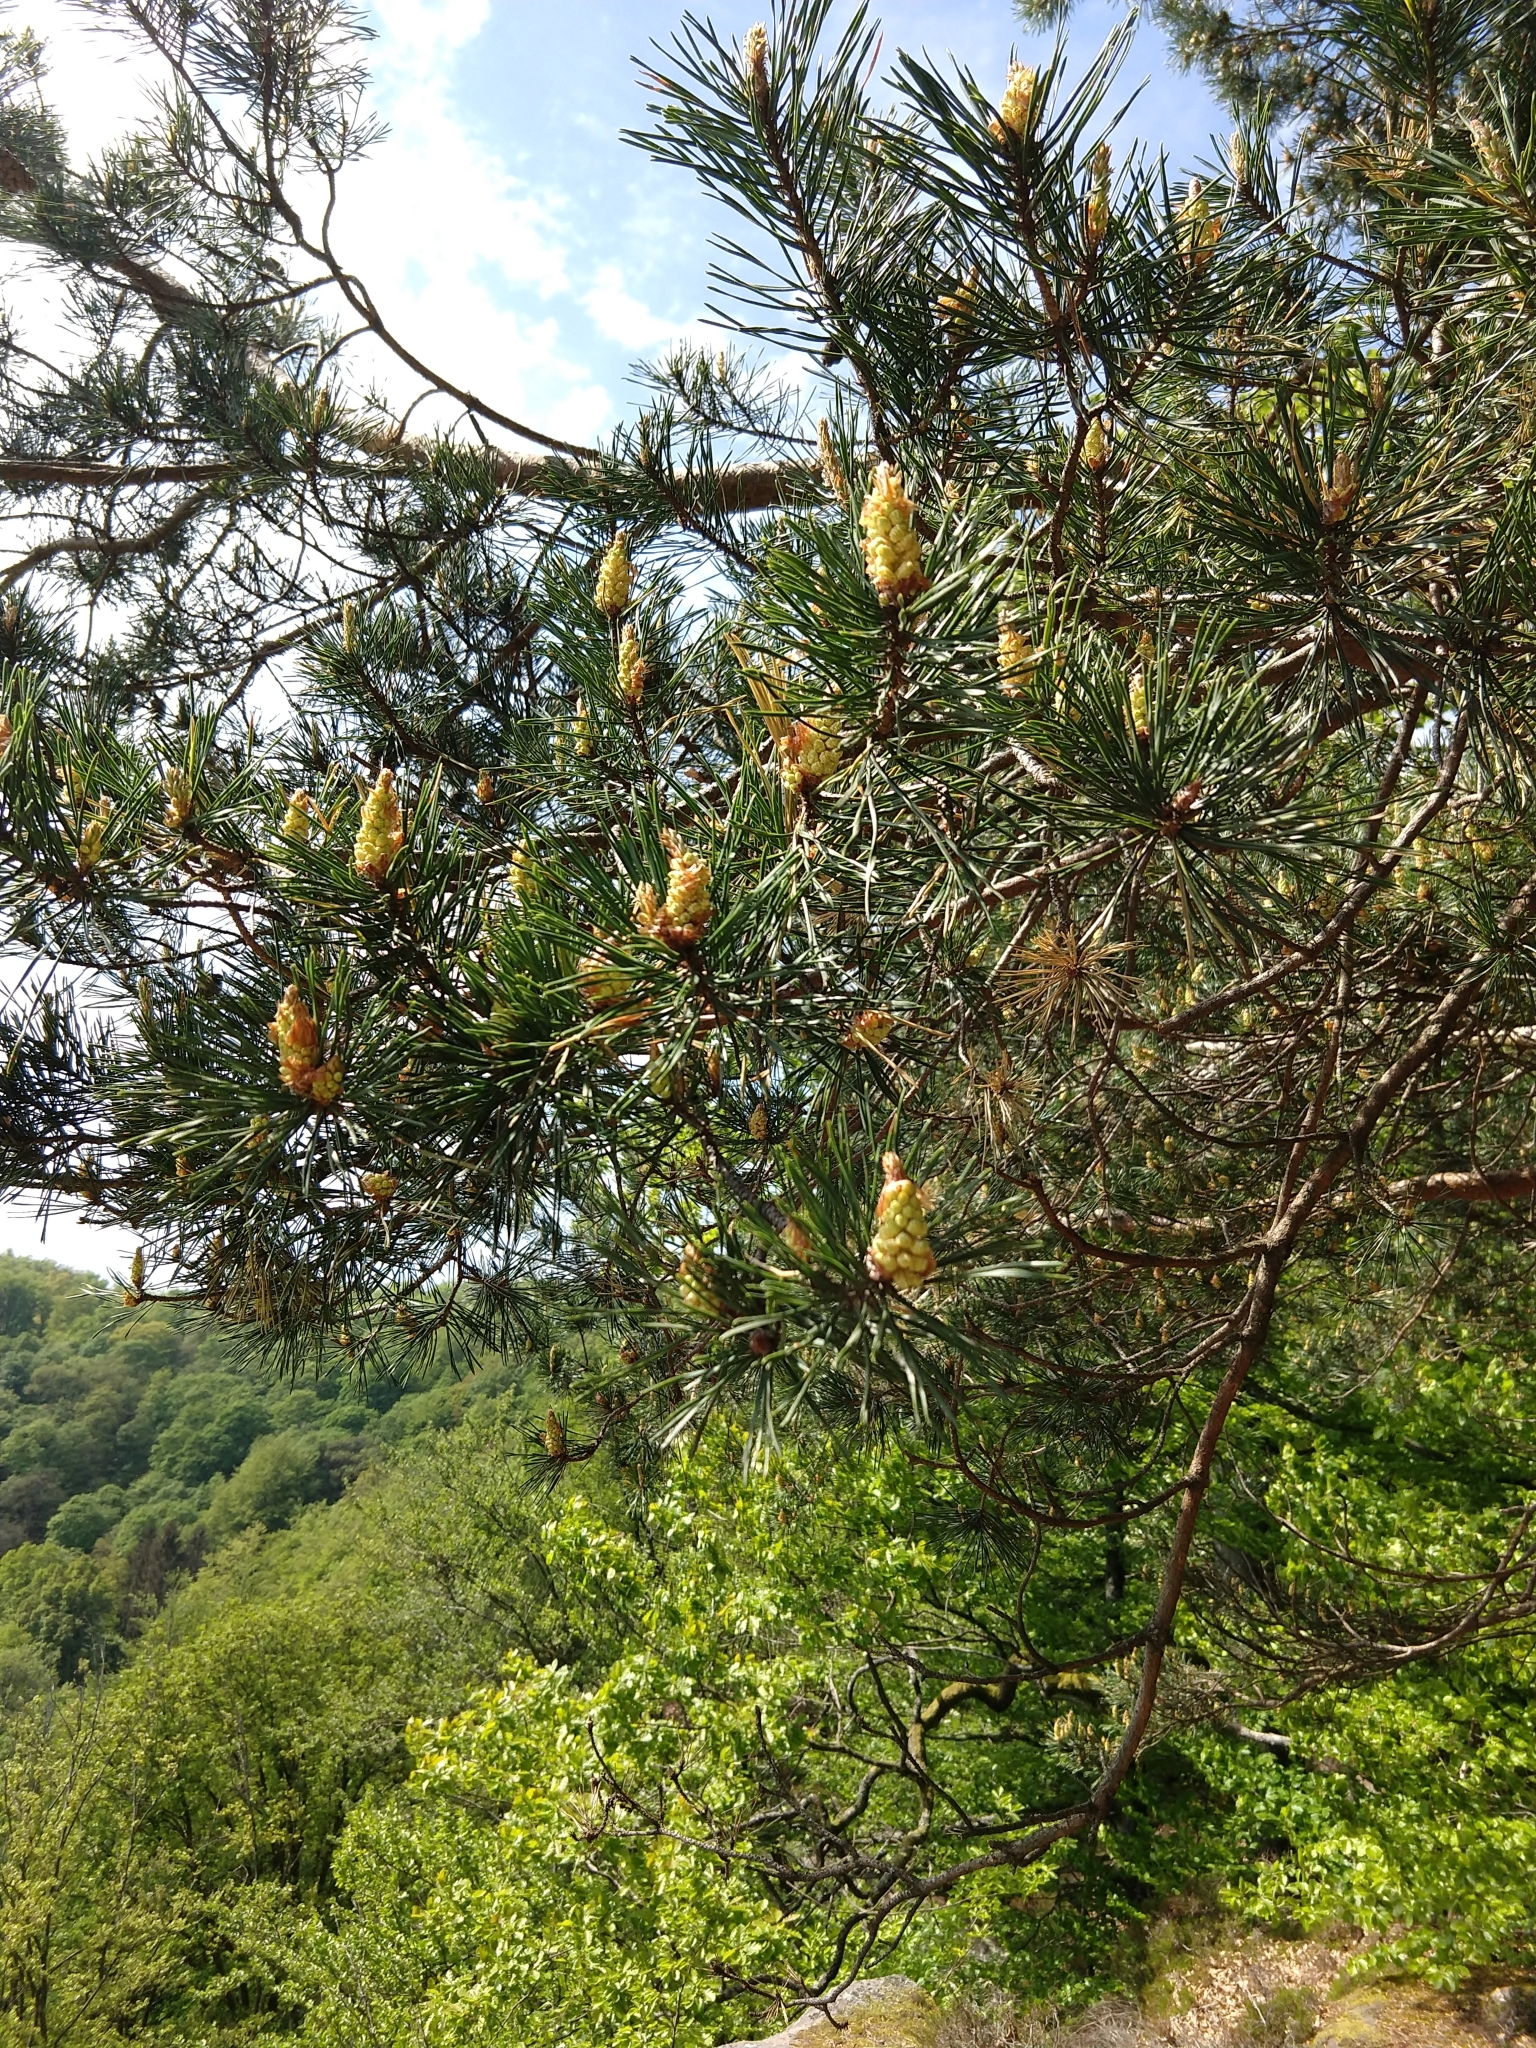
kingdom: Plantae
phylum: Tracheophyta
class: Pinopsida
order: Pinales
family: Pinaceae
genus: Pinus
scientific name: Pinus sylvestris
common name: Scots pine
